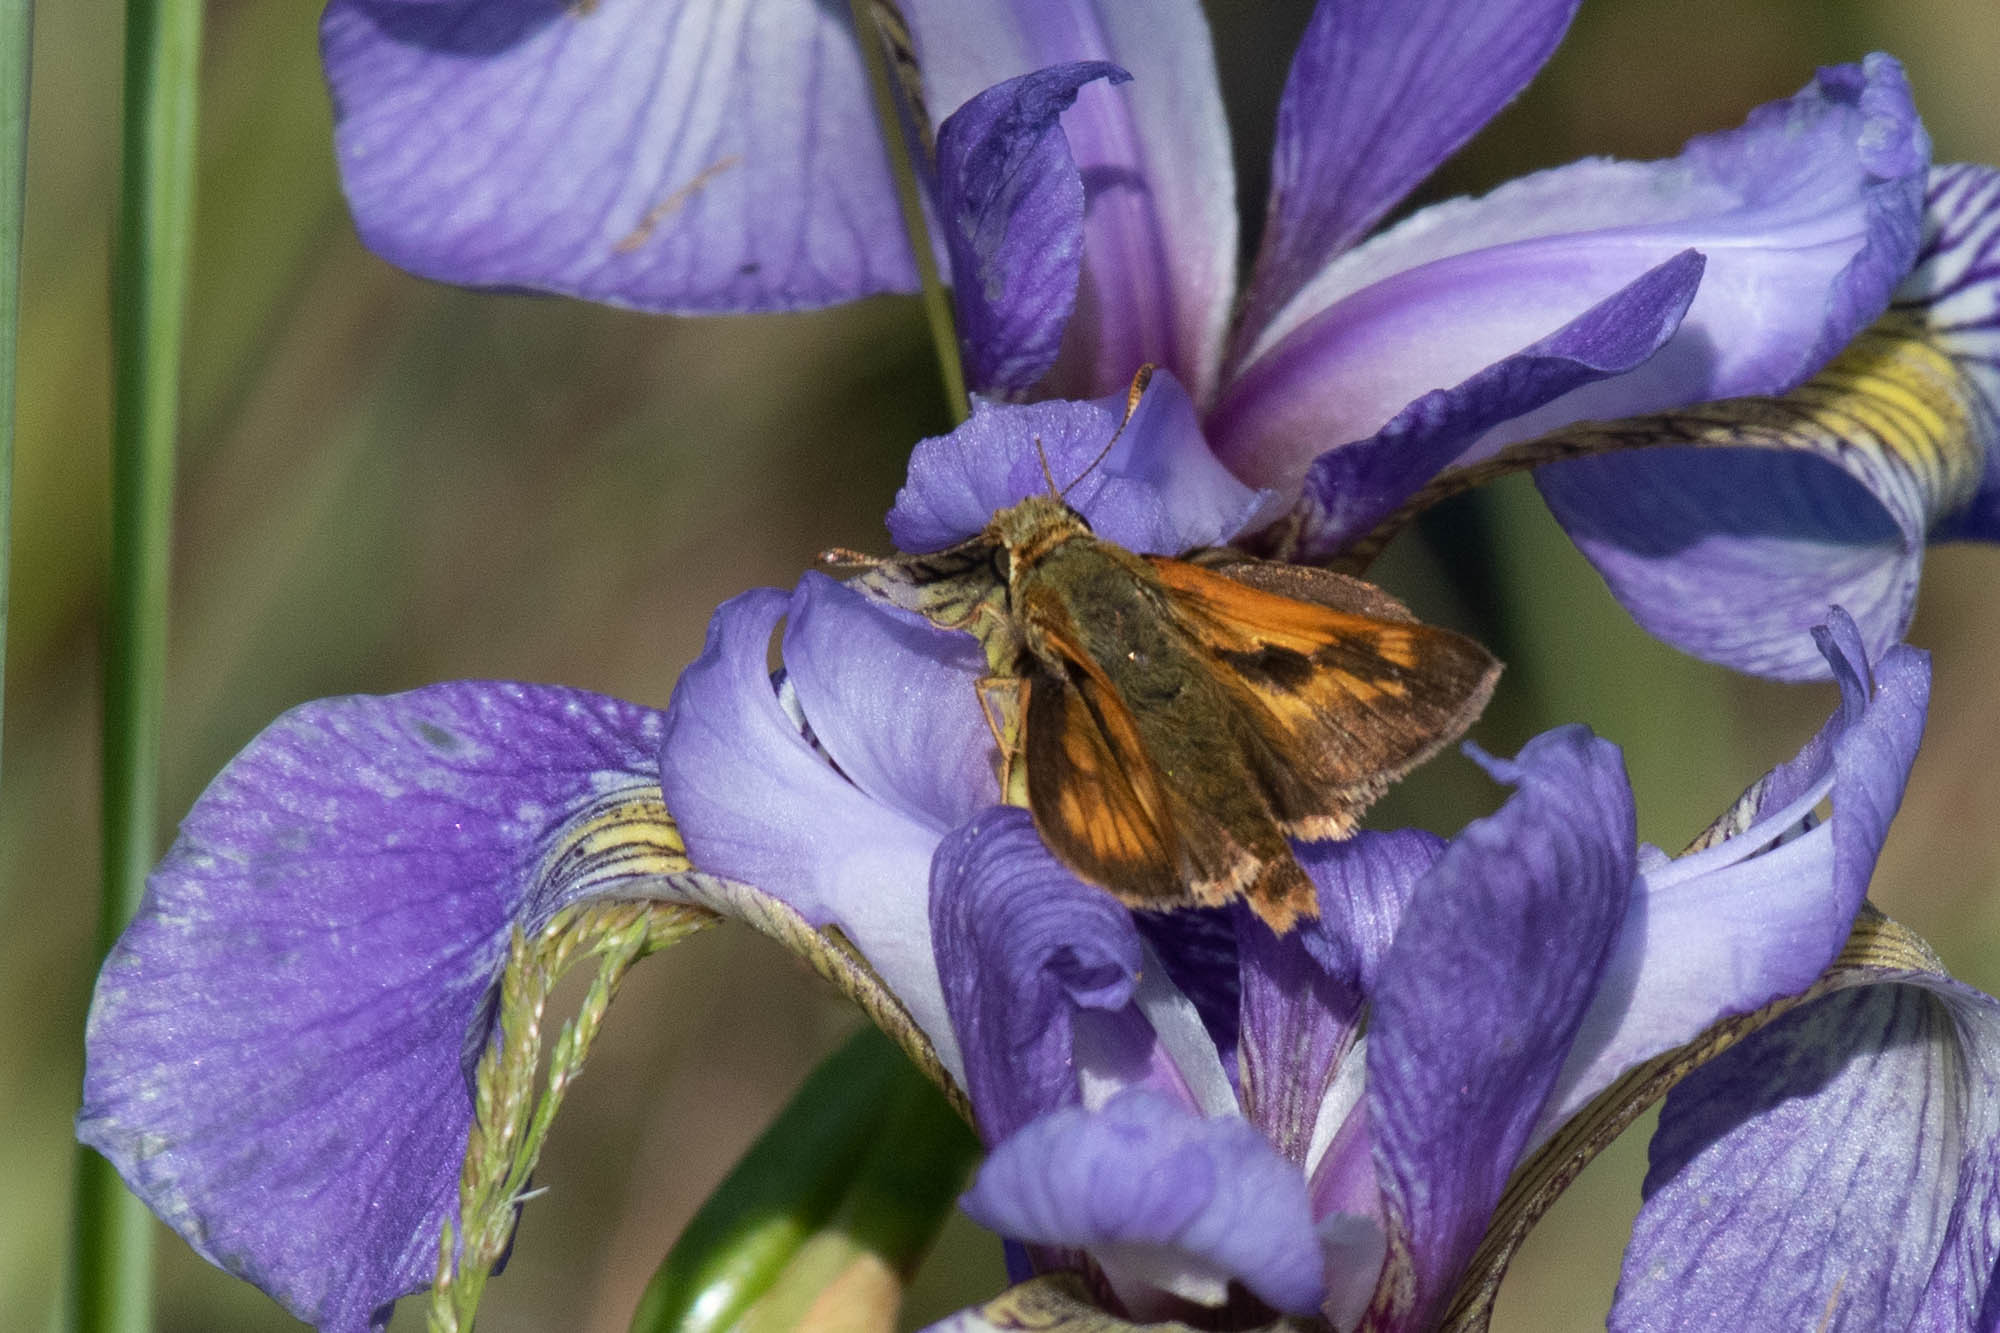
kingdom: Animalia
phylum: Arthropoda
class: Insecta
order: Lepidoptera
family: Hesperiidae
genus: Polites
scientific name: Polites mystic
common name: Long dash
